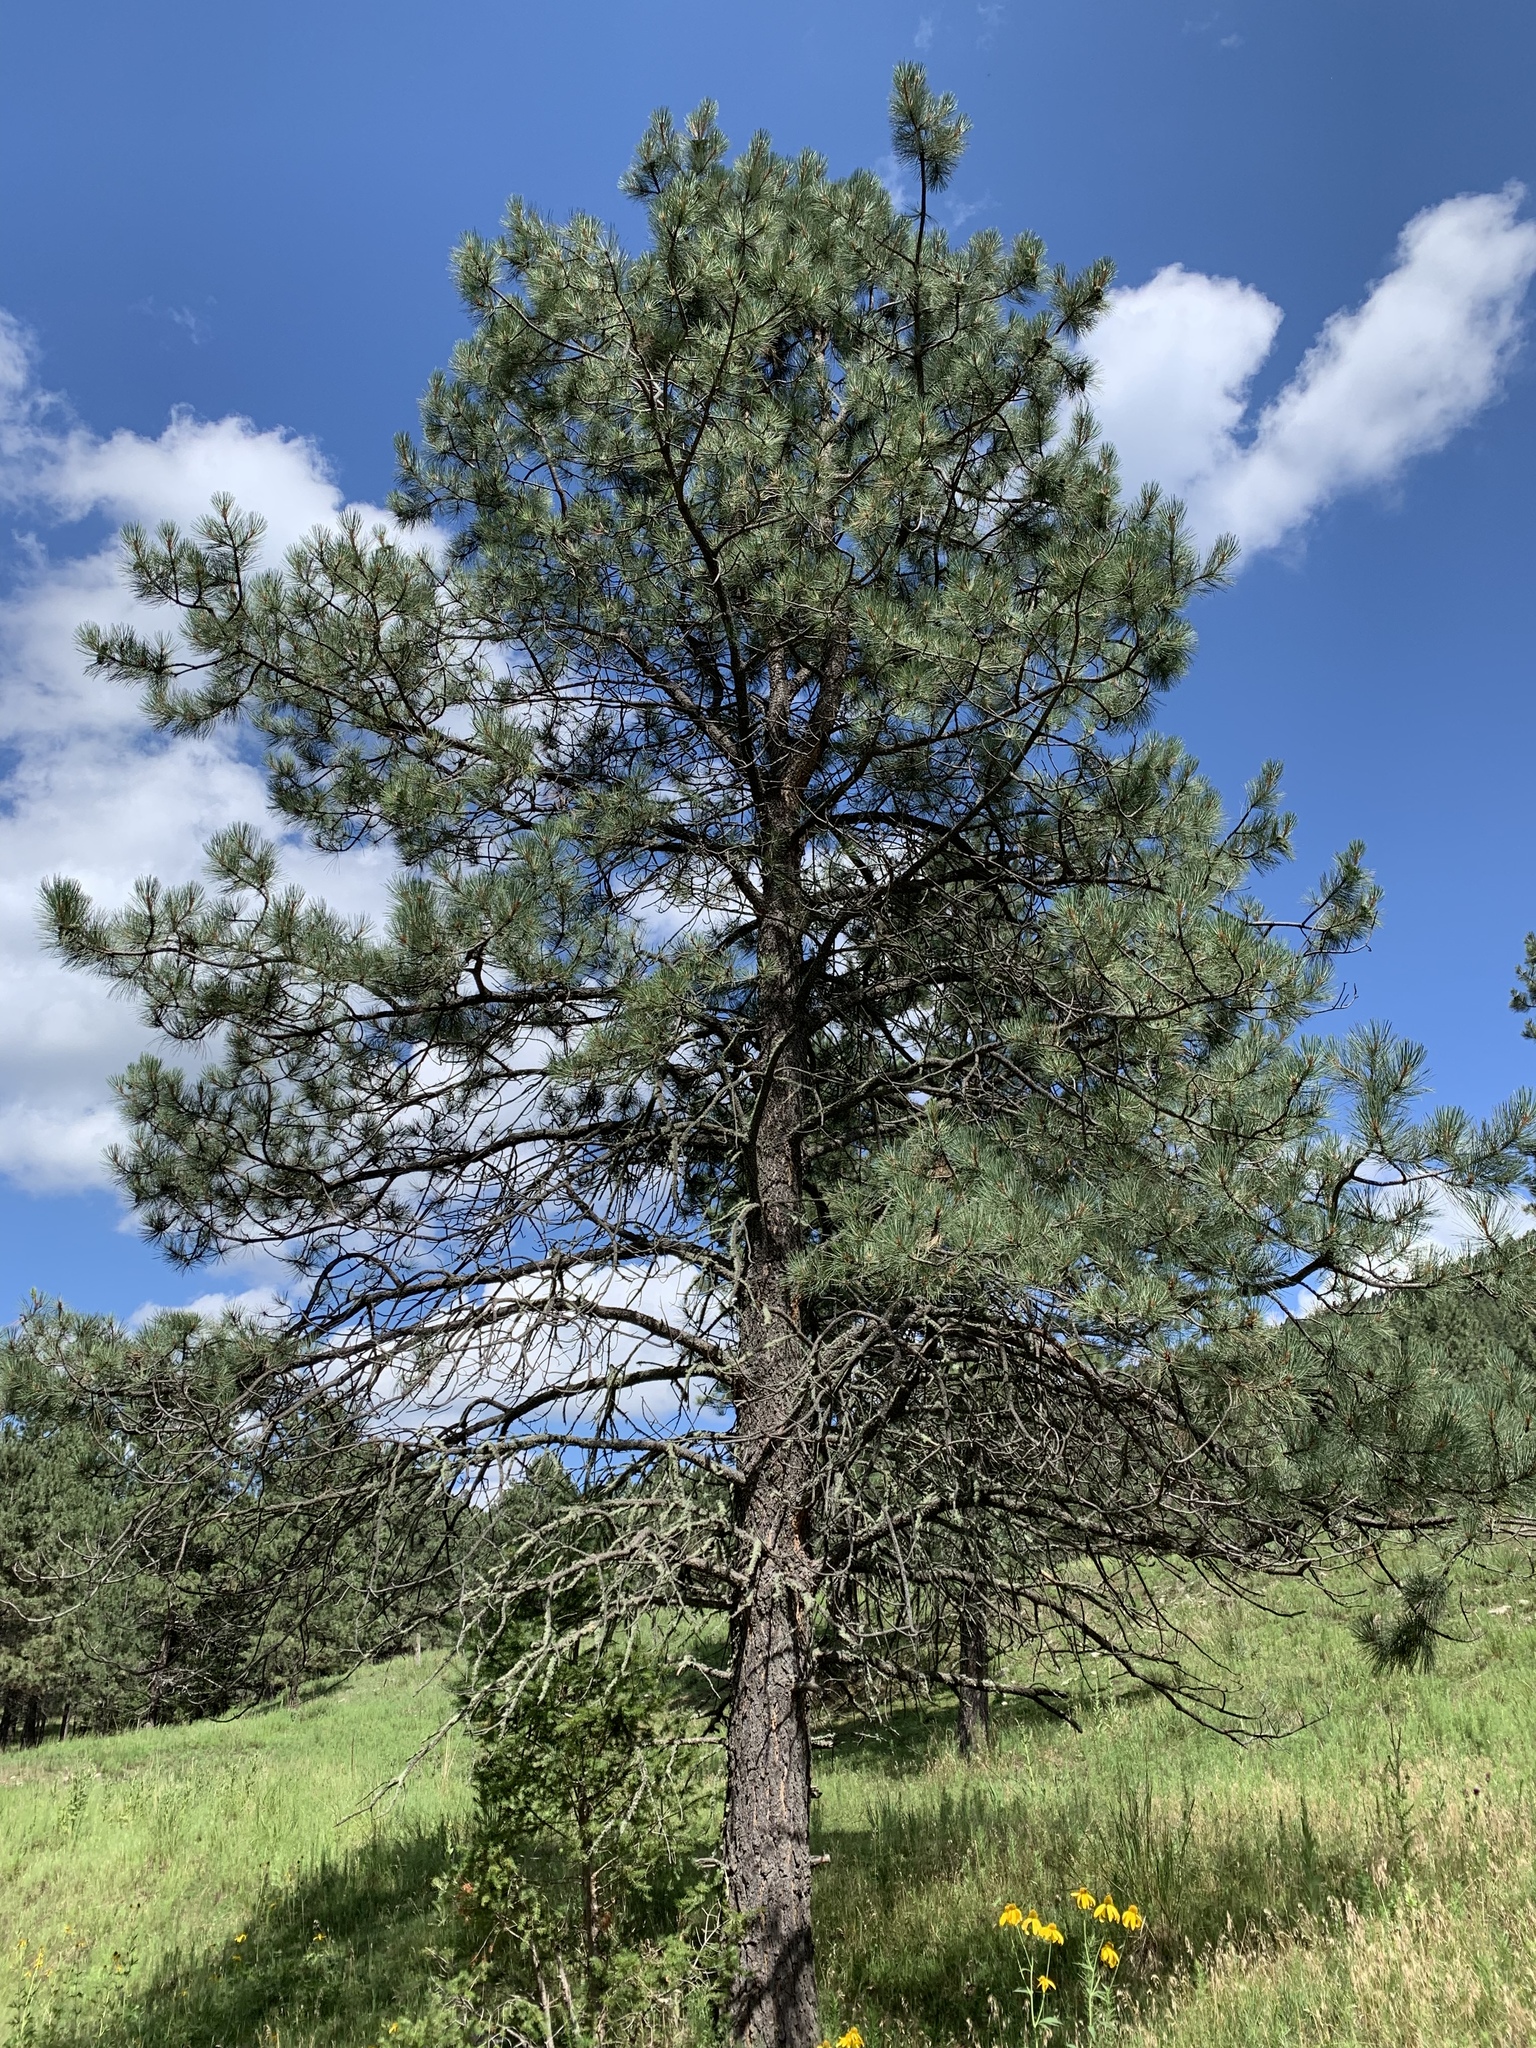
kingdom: Plantae
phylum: Tracheophyta
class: Pinopsida
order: Pinales
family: Pinaceae
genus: Pinus
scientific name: Pinus ponderosa
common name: Western yellow-pine
